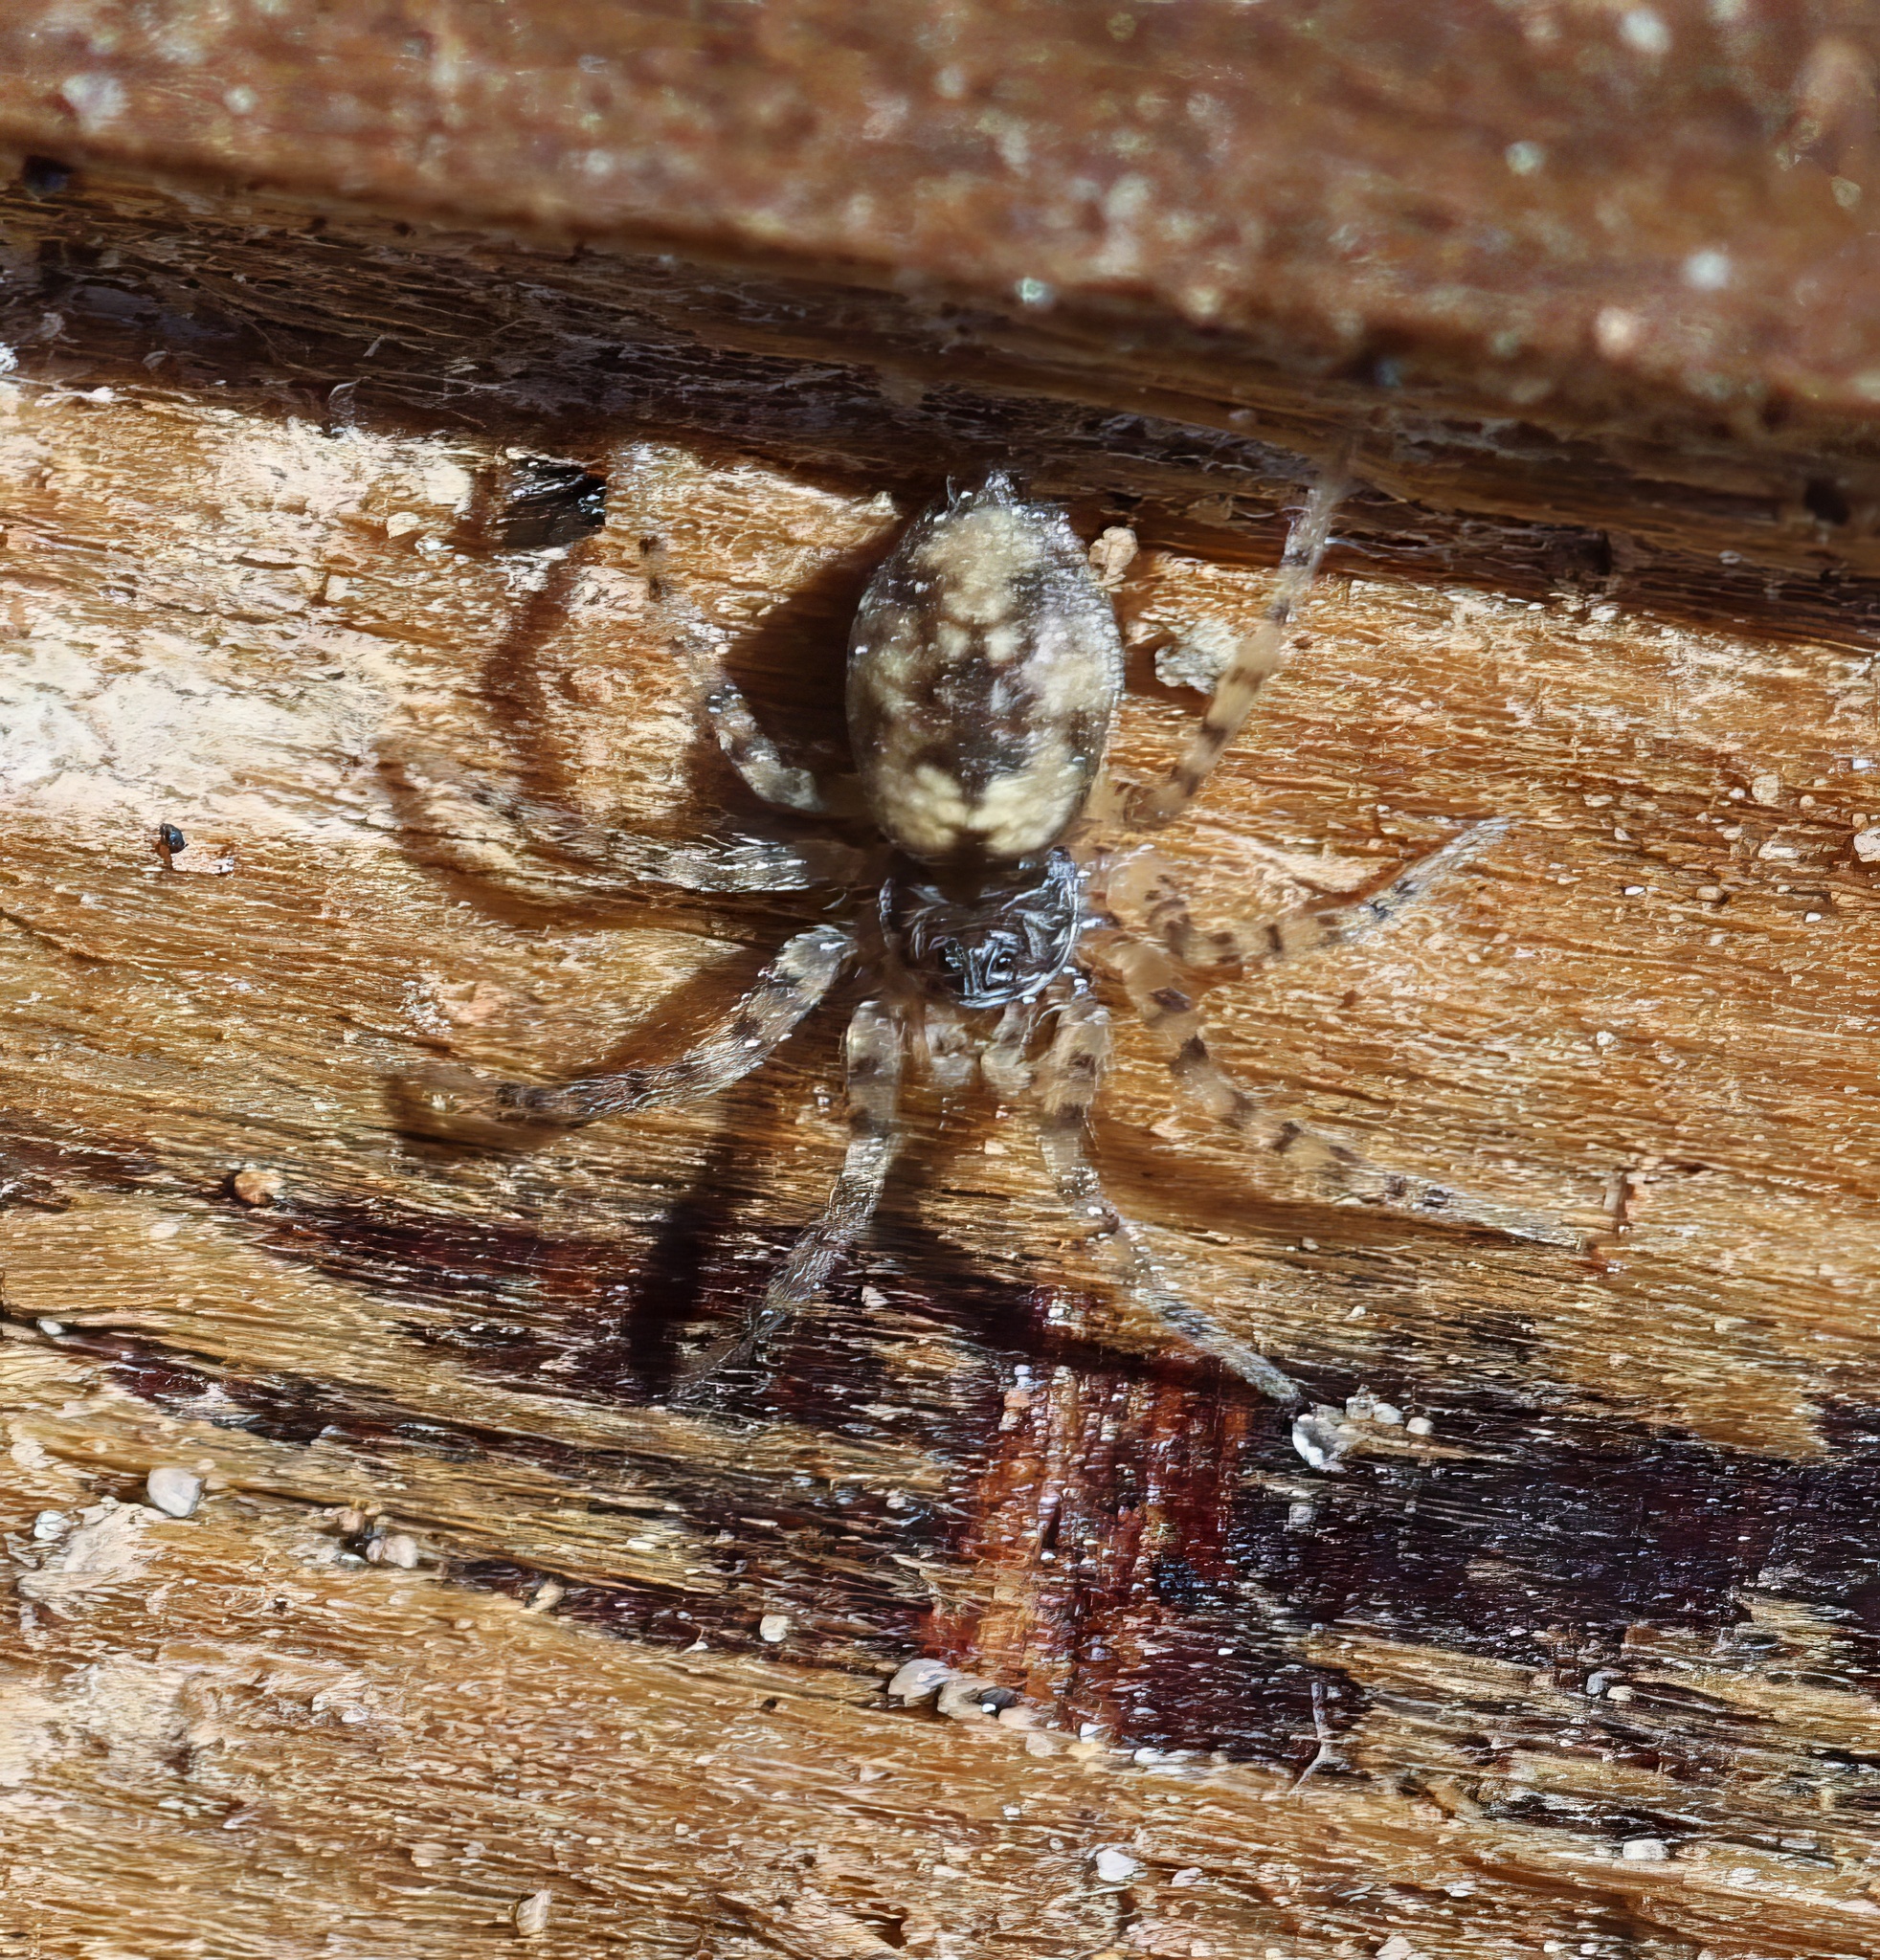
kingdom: Animalia
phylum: Arthropoda
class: Arachnida
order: Araneae
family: Oecobiidae
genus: Oecobius
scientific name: Oecobius
